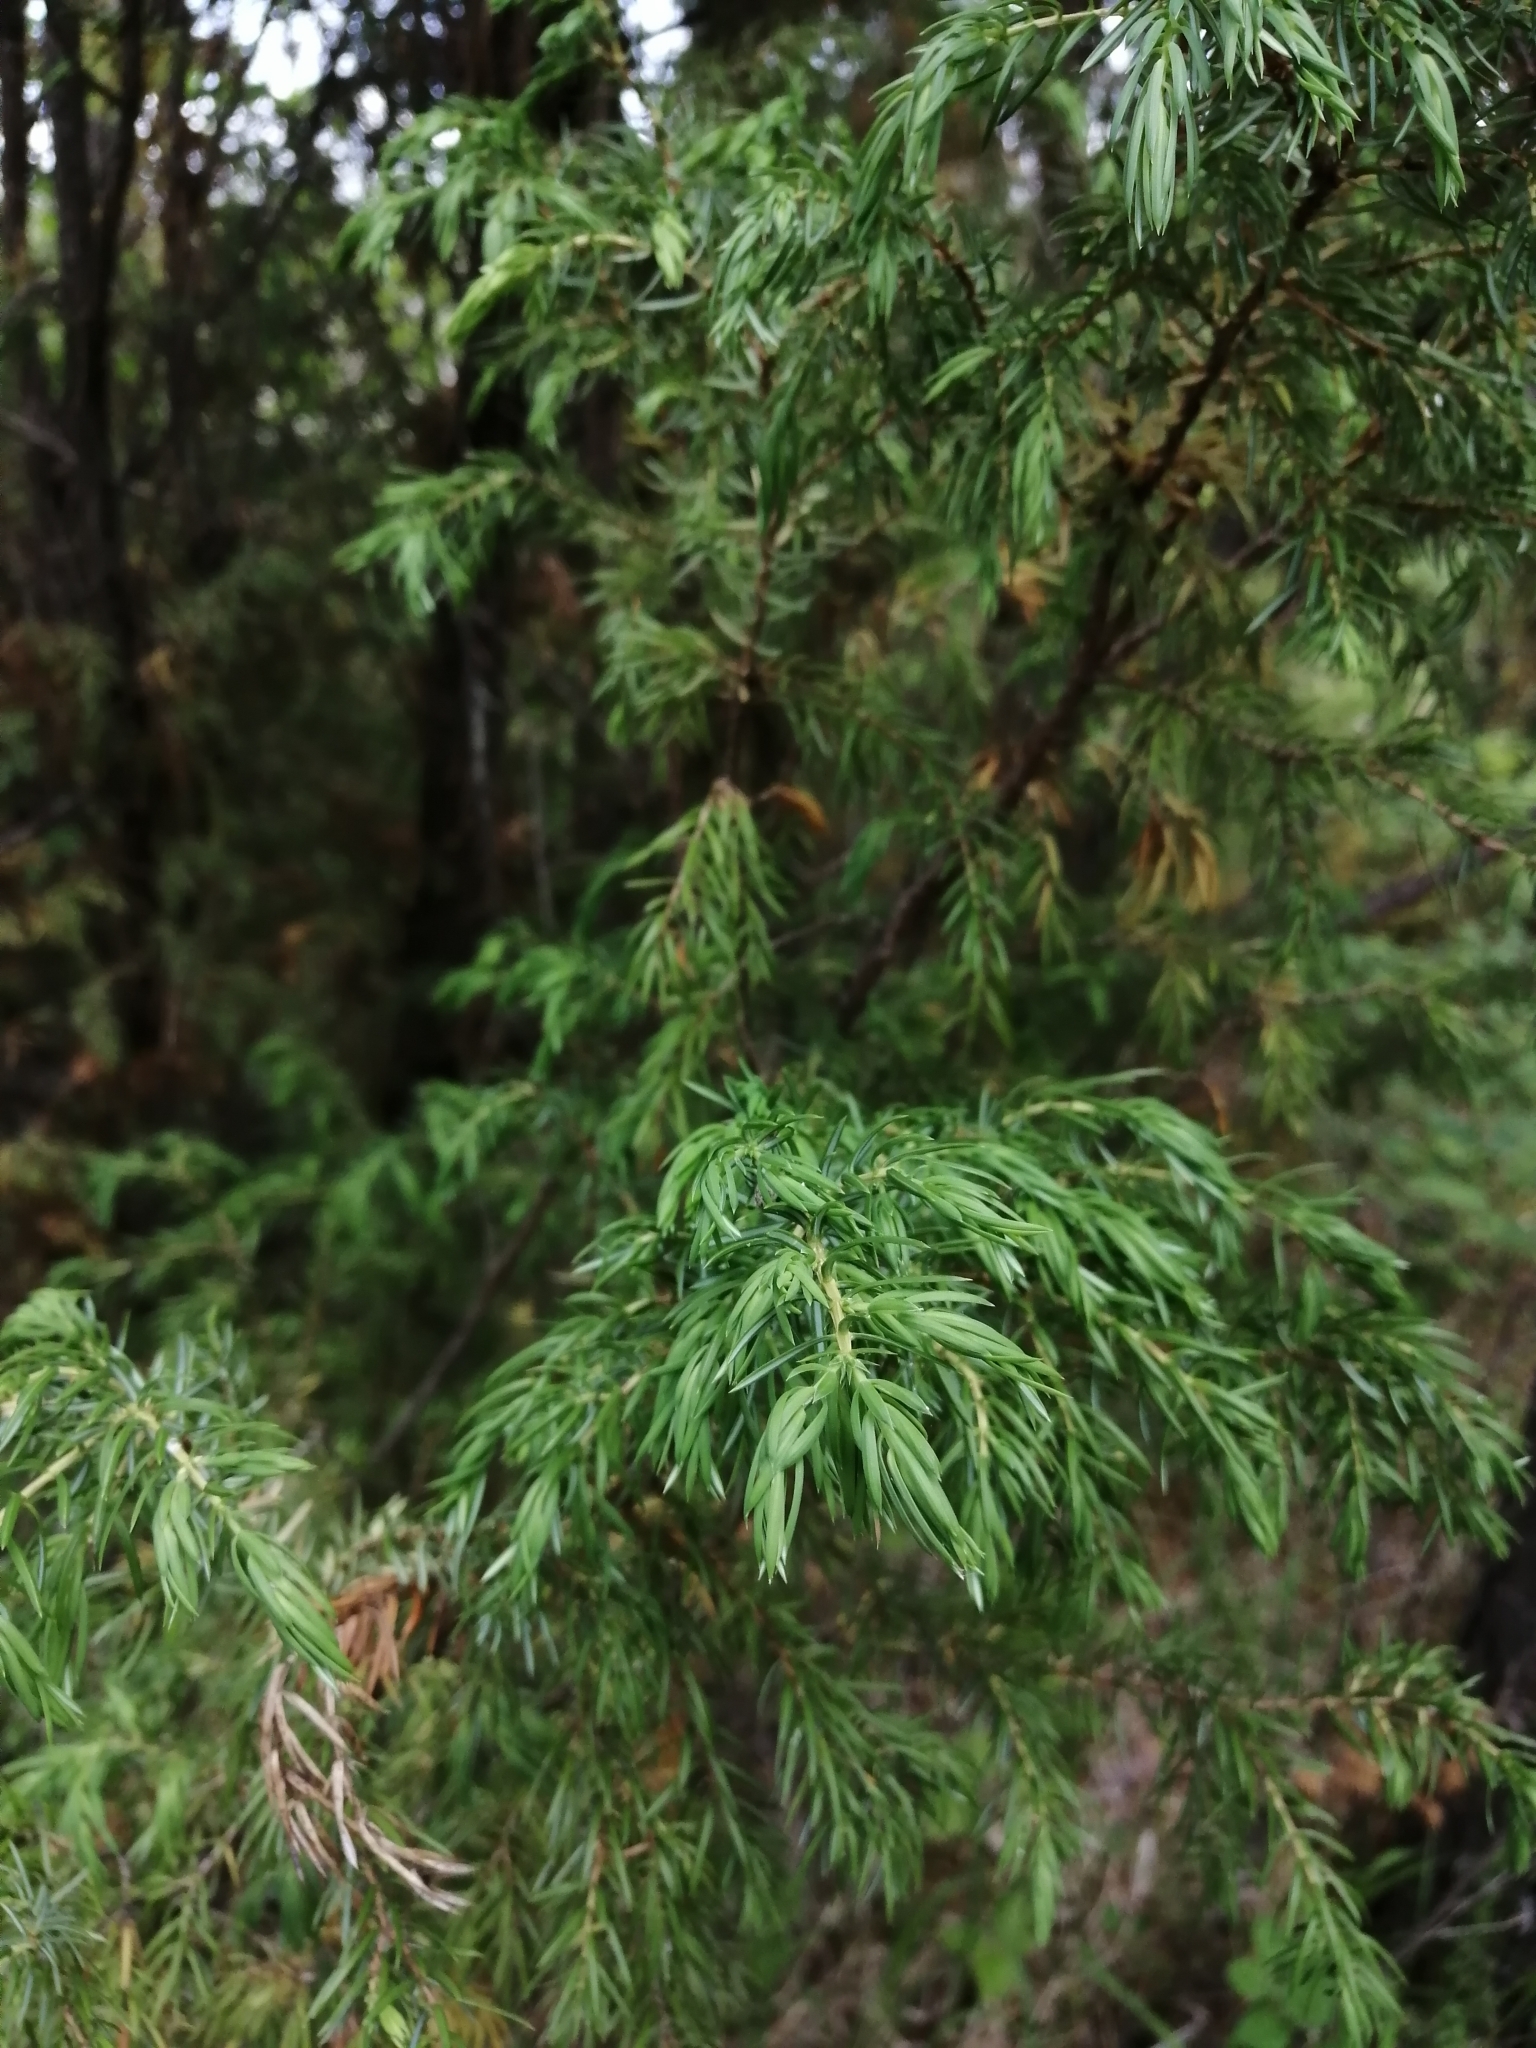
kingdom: Plantae
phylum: Tracheophyta
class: Pinopsida
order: Pinales
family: Cupressaceae
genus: Juniperus
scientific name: Juniperus communis
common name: Common juniper
